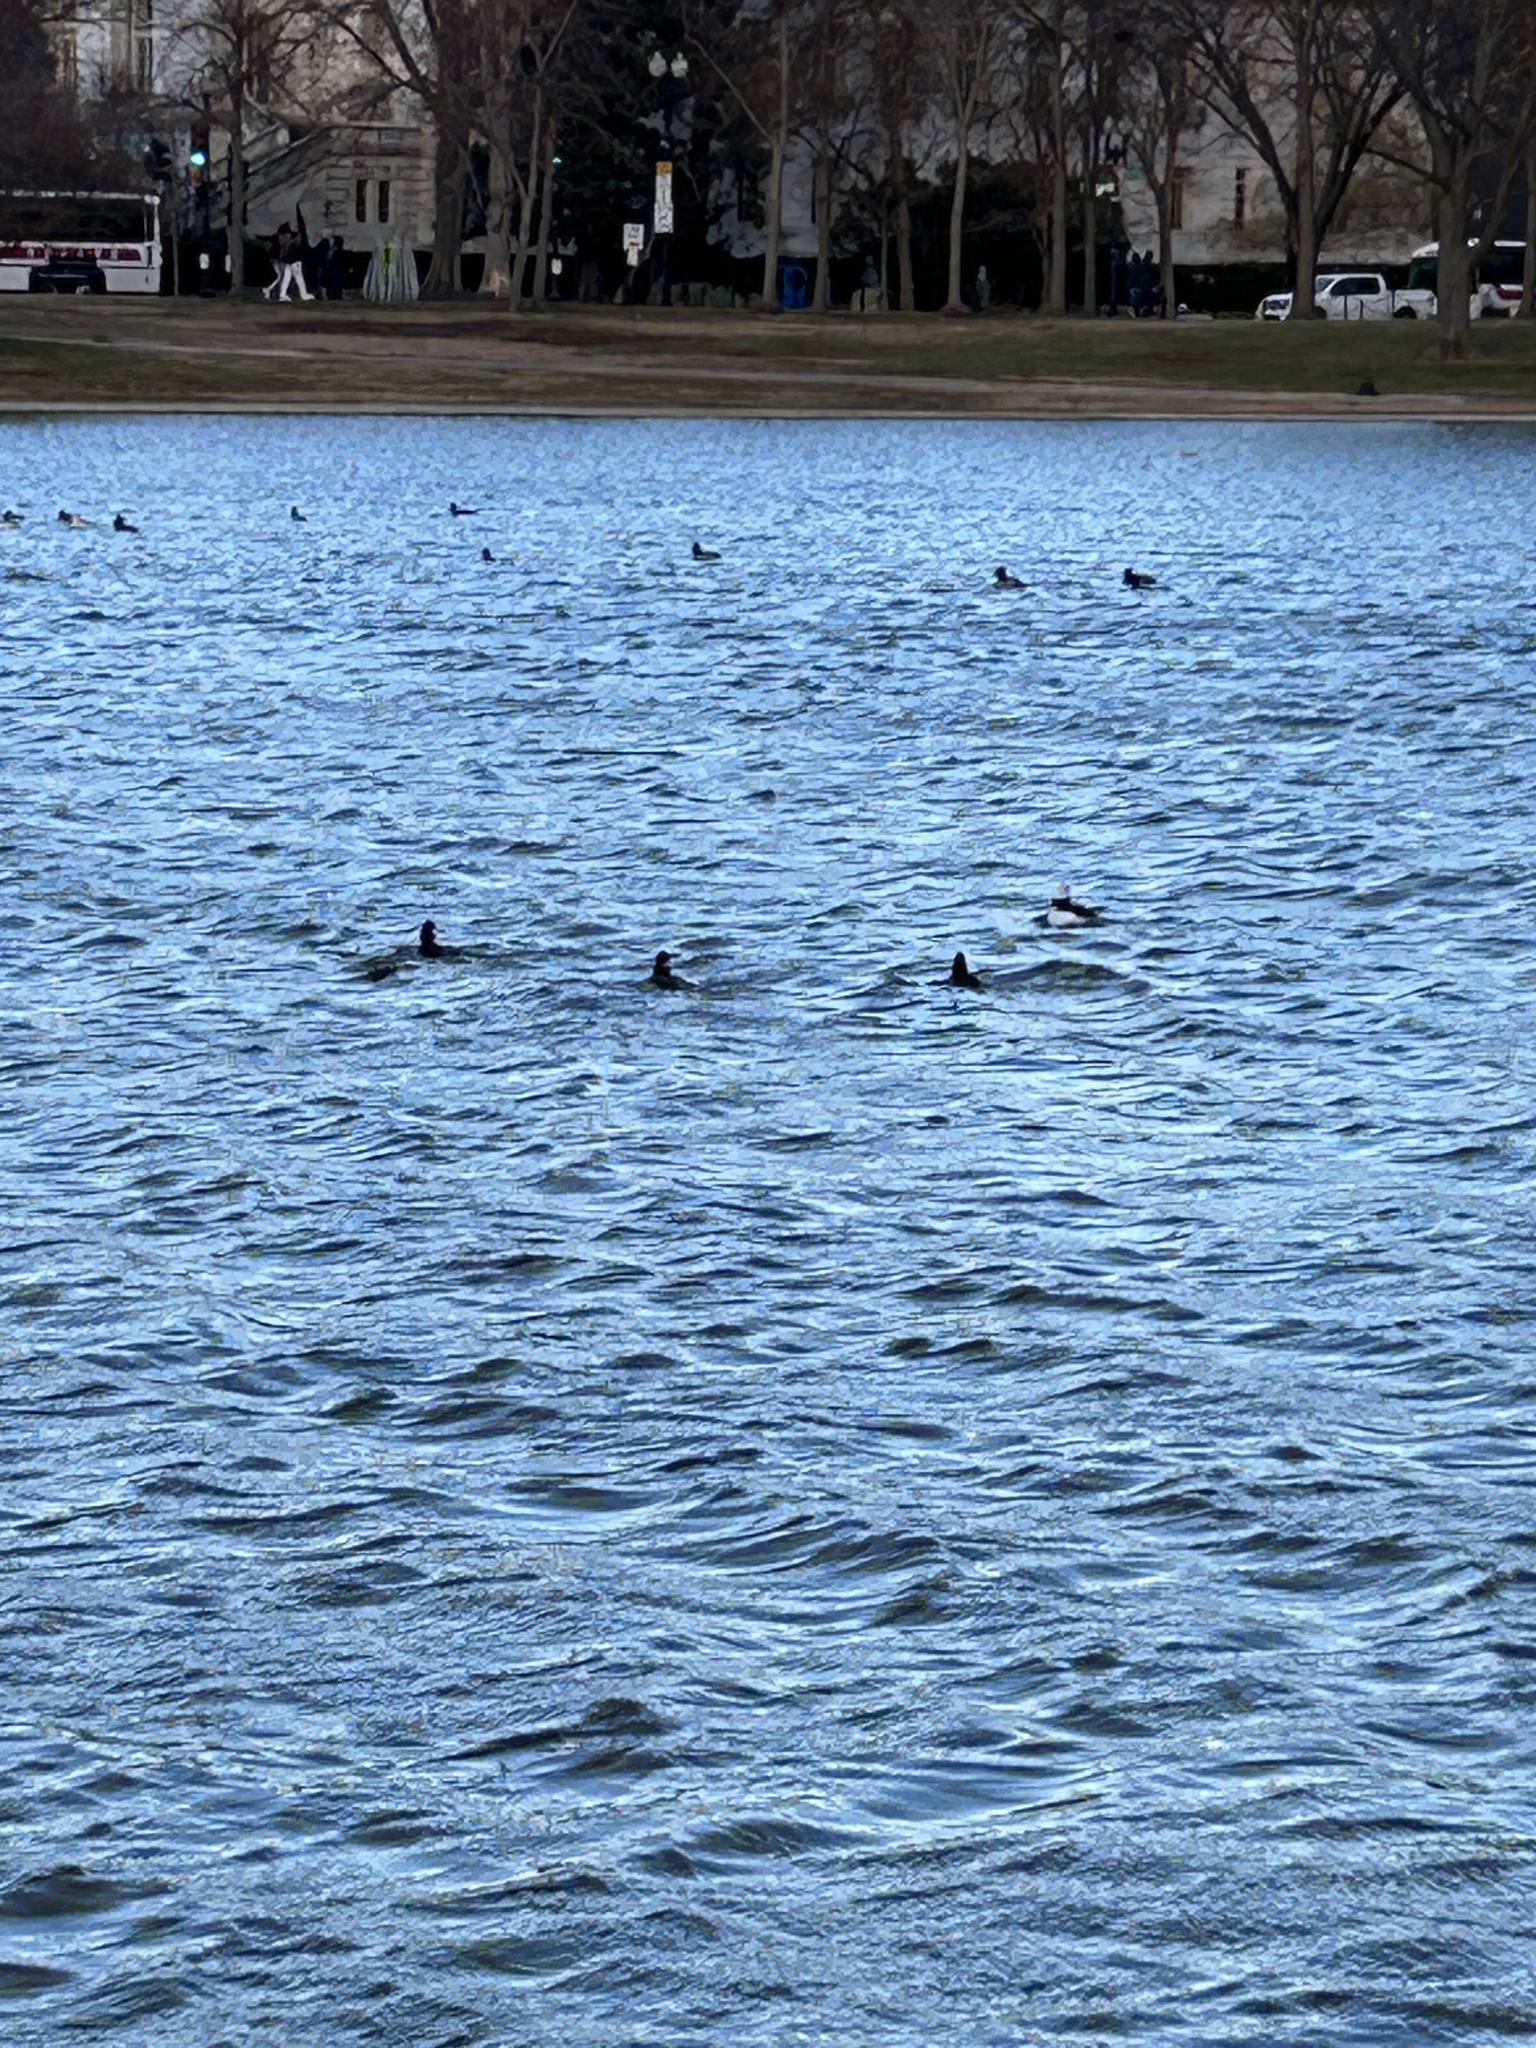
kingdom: Animalia
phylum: Chordata
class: Aves
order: Anseriformes
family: Anatidae
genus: Bucephala
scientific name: Bucephala albeola
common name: Bufflehead
